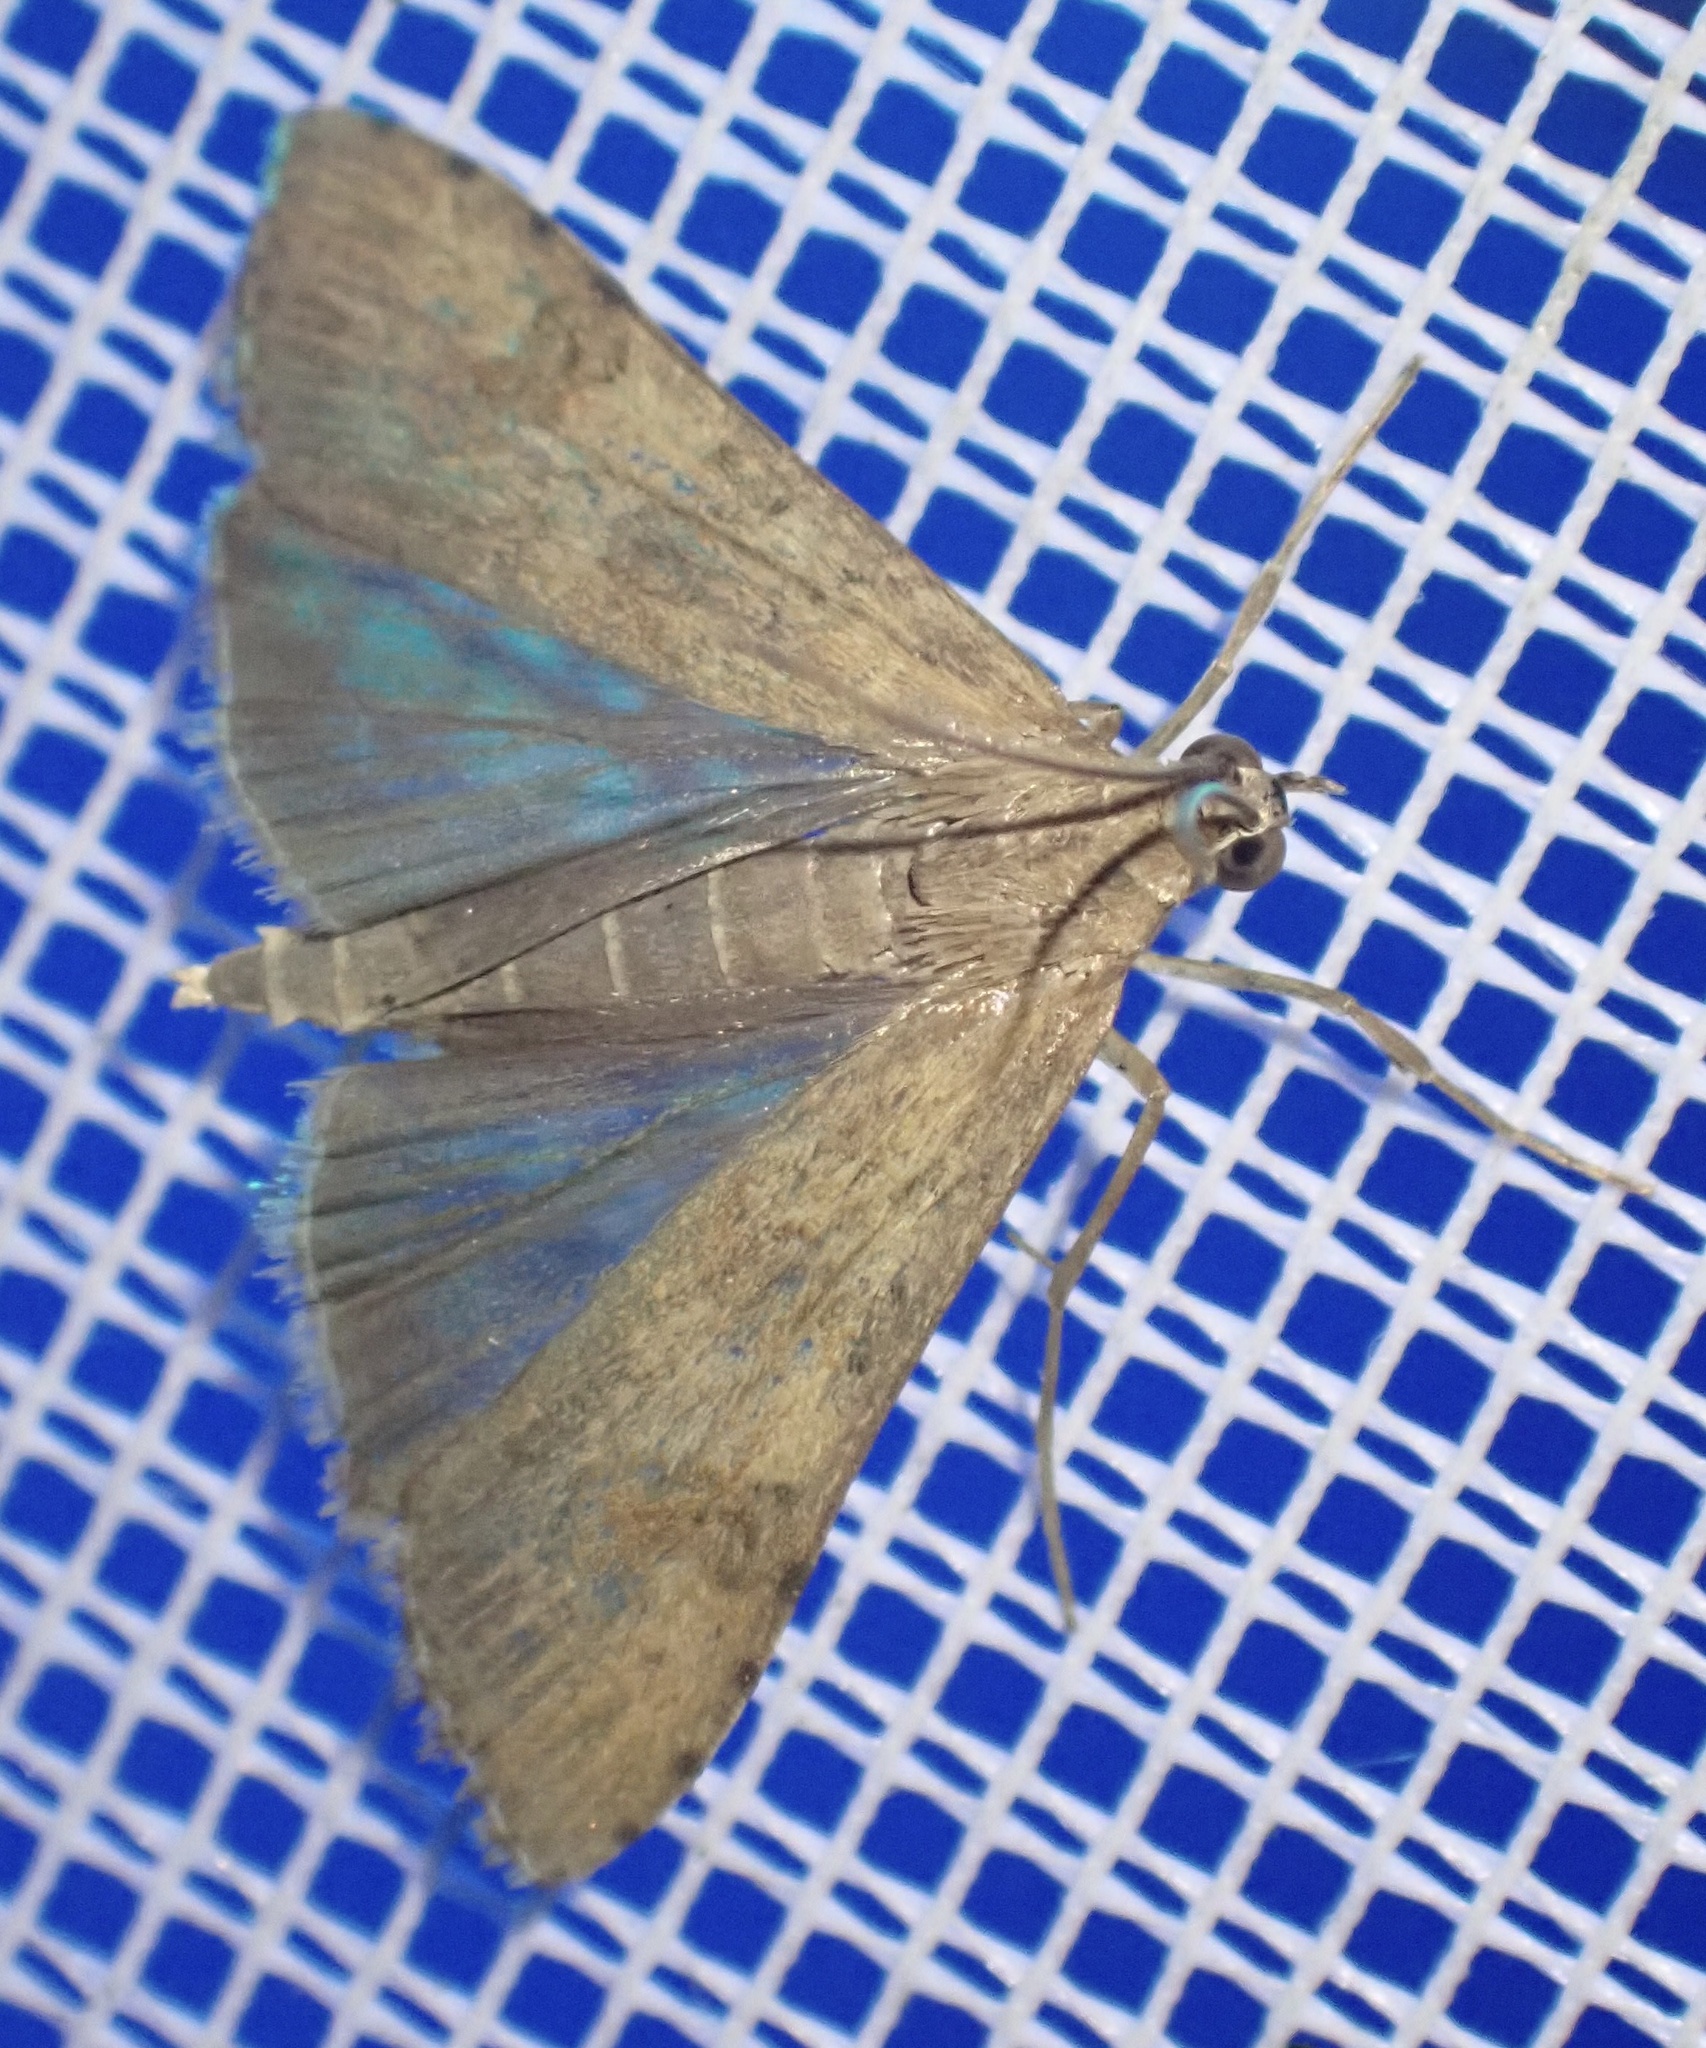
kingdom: Animalia
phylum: Arthropoda
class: Insecta
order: Lepidoptera
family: Crambidae
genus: Nomophila
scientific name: Nomophila noctuella
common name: Rush veneer
